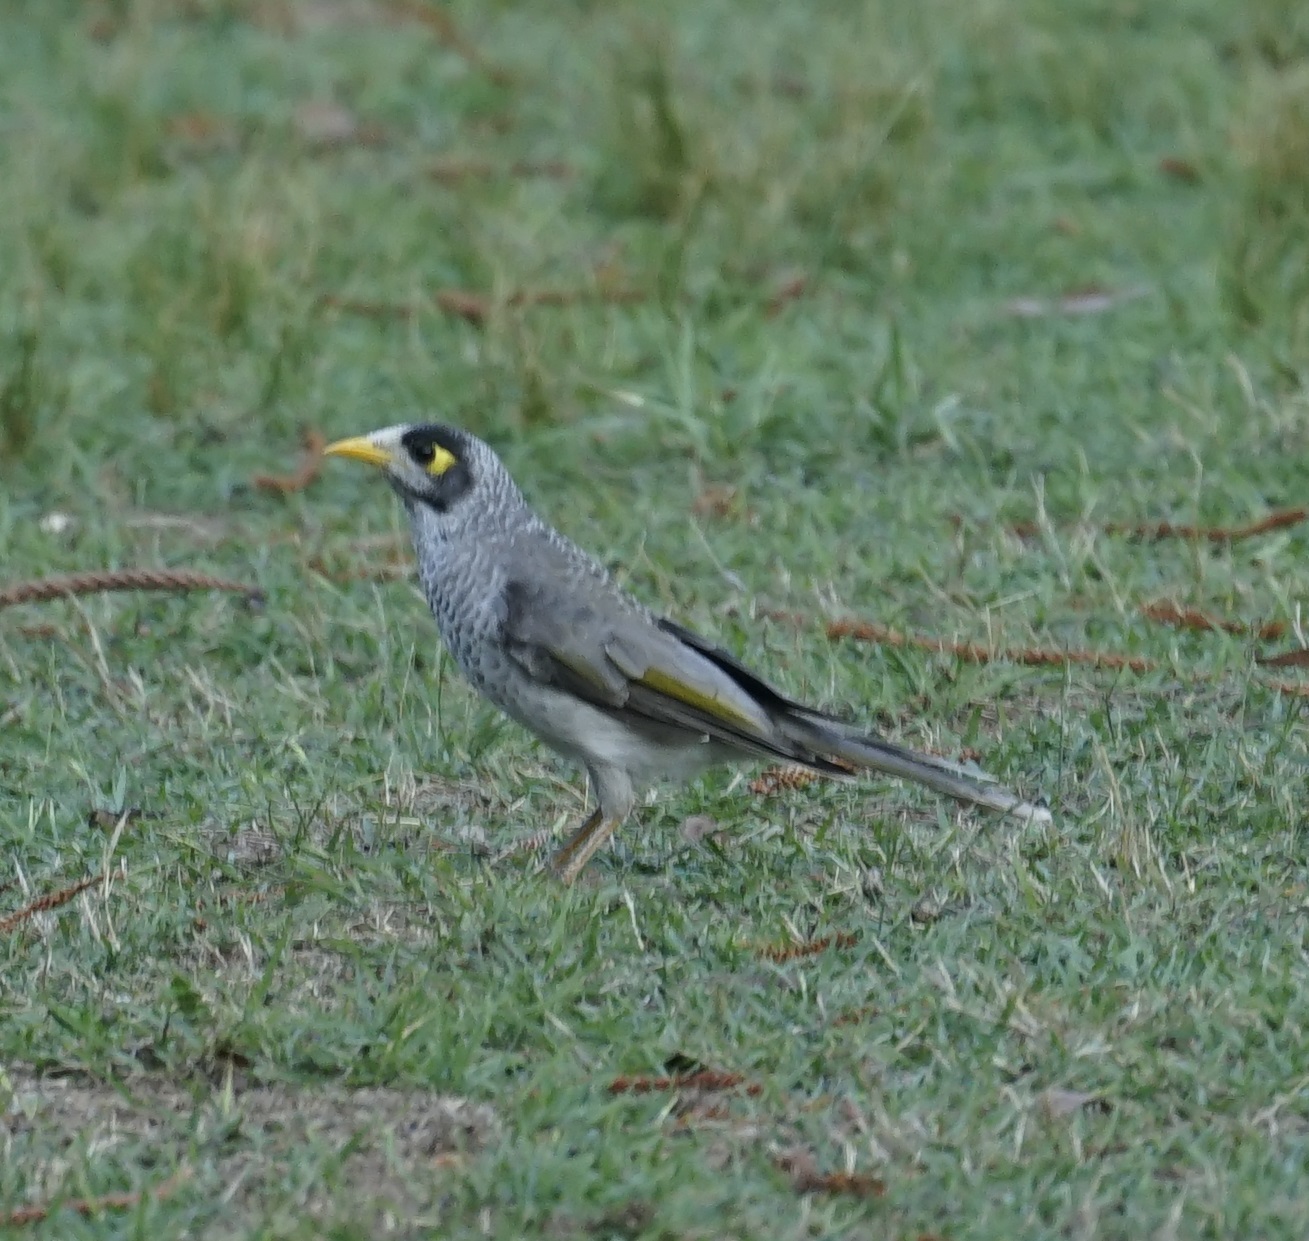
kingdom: Animalia
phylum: Chordata
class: Aves
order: Passeriformes
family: Meliphagidae
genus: Manorina
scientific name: Manorina melanocephala
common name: Noisy miner
